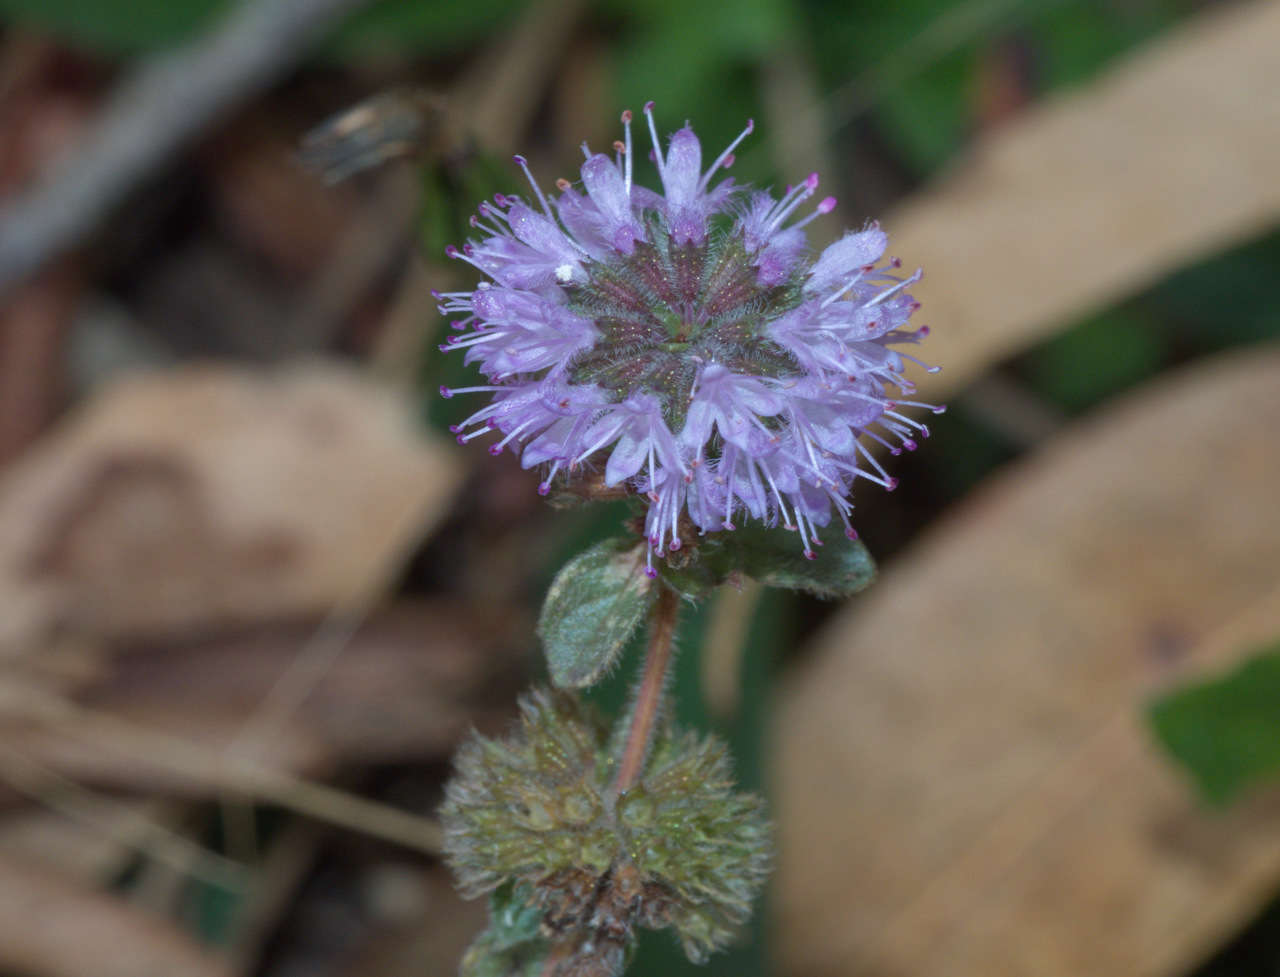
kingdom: Plantae
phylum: Tracheophyta
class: Magnoliopsida
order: Lamiales
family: Lamiaceae
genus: Mentha
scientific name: Mentha pulegium
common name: Pennyroyal
